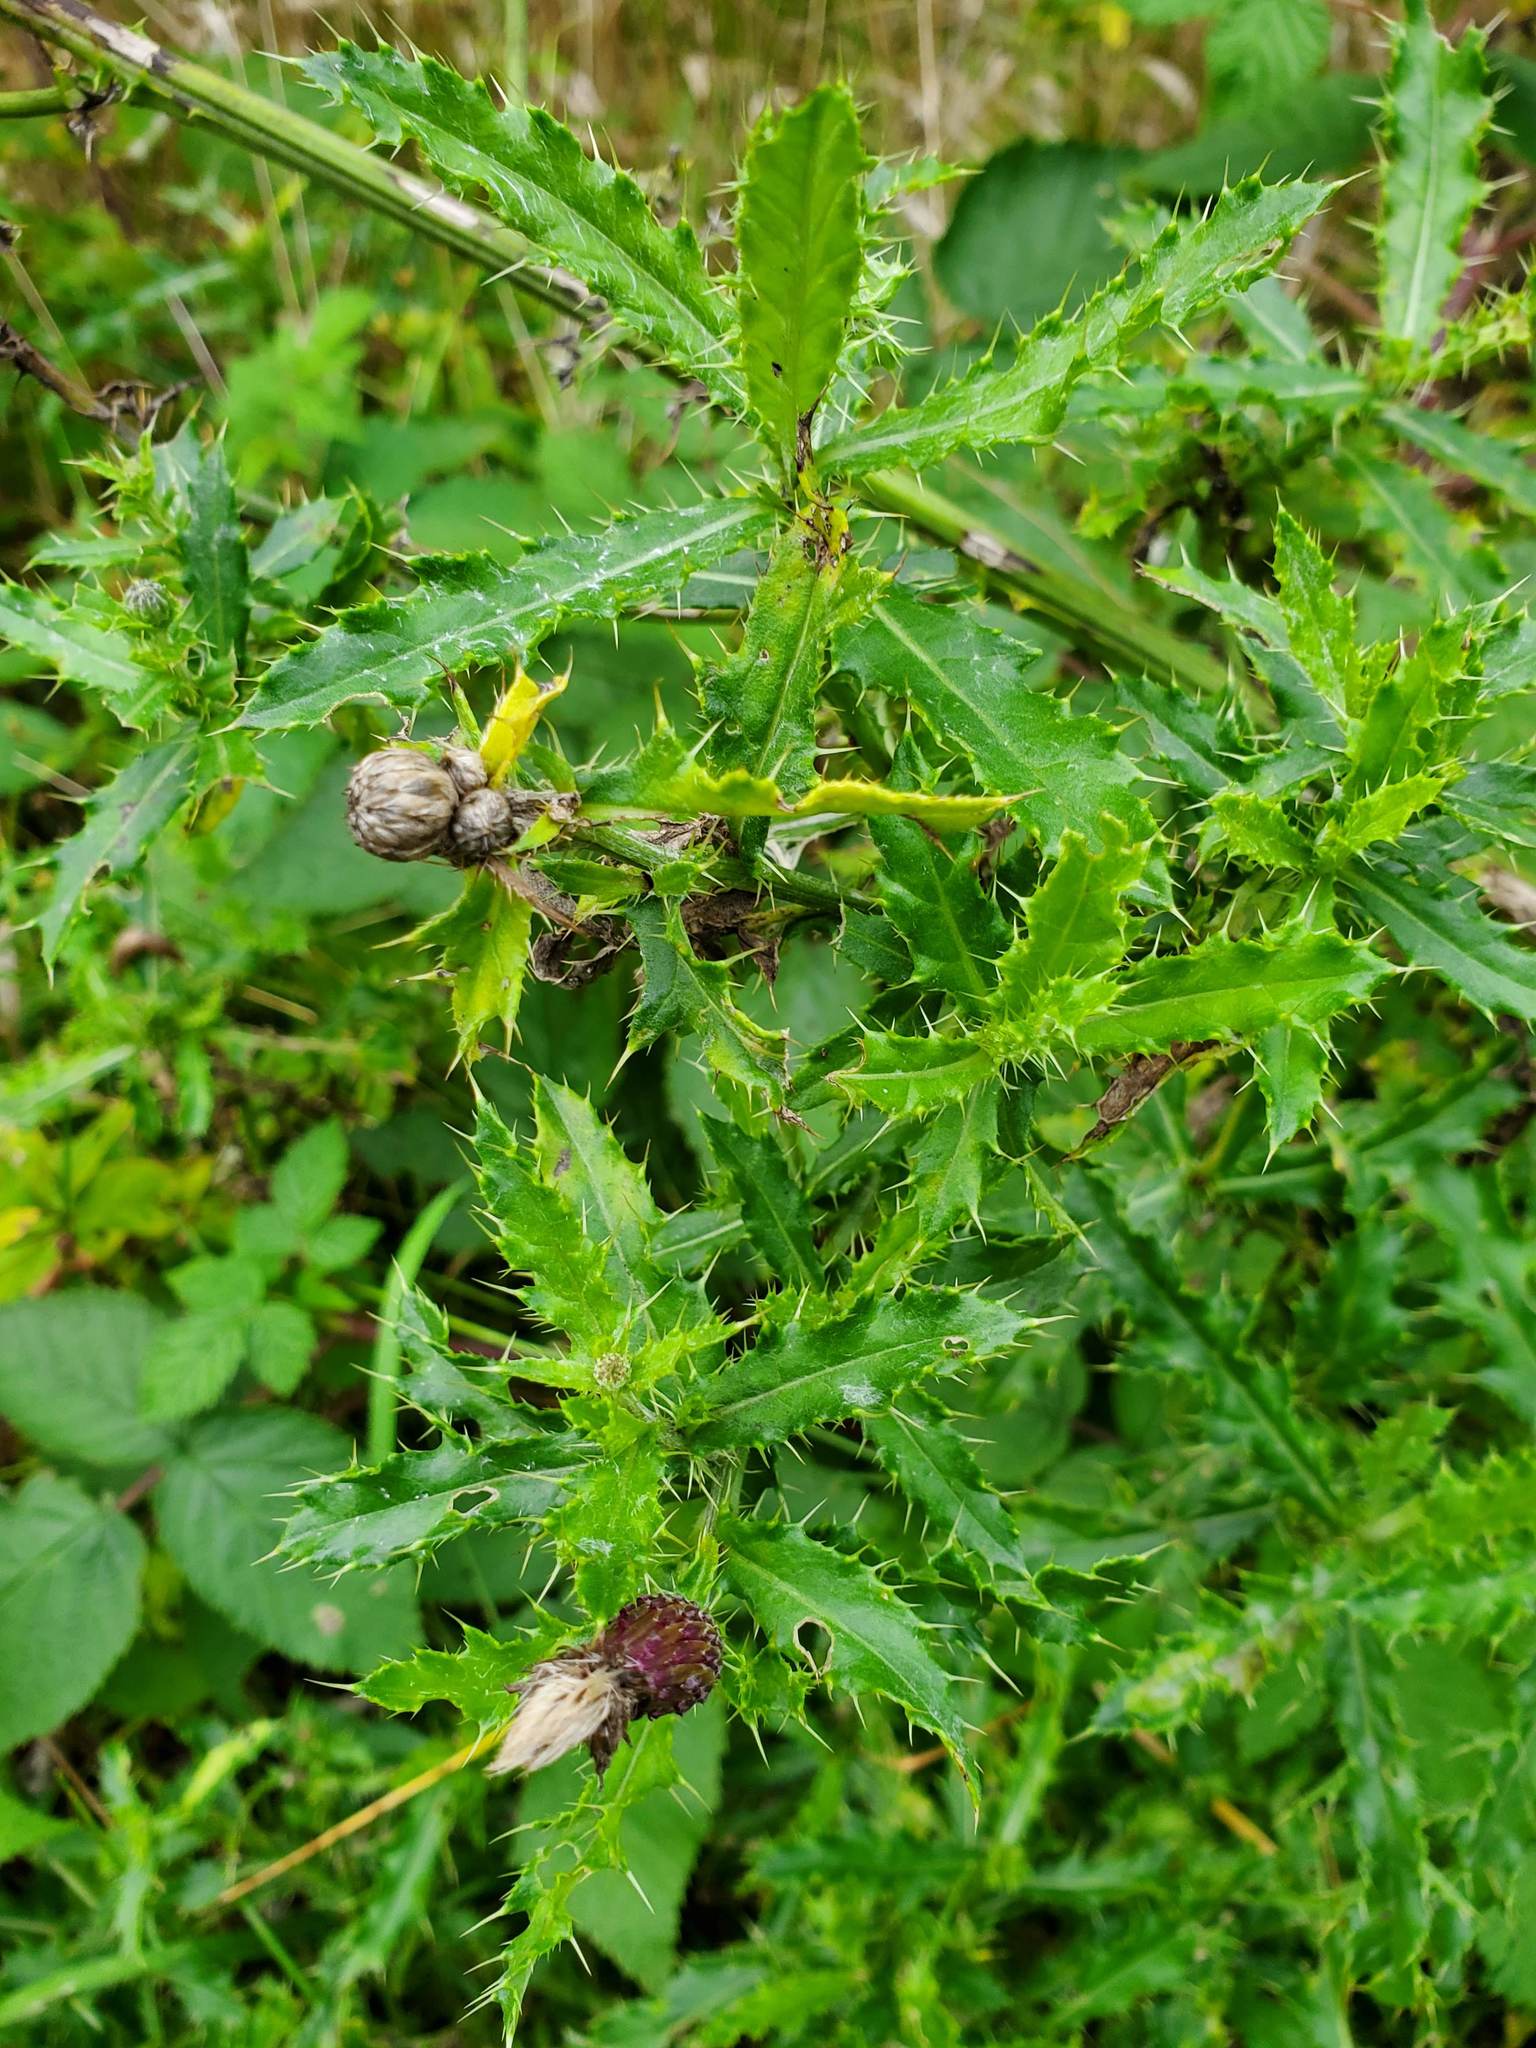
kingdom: Plantae
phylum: Tracheophyta
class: Magnoliopsida
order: Asterales
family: Asteraceae
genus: Cirsium
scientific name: Cirsium arvense
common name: Creeping thistle
